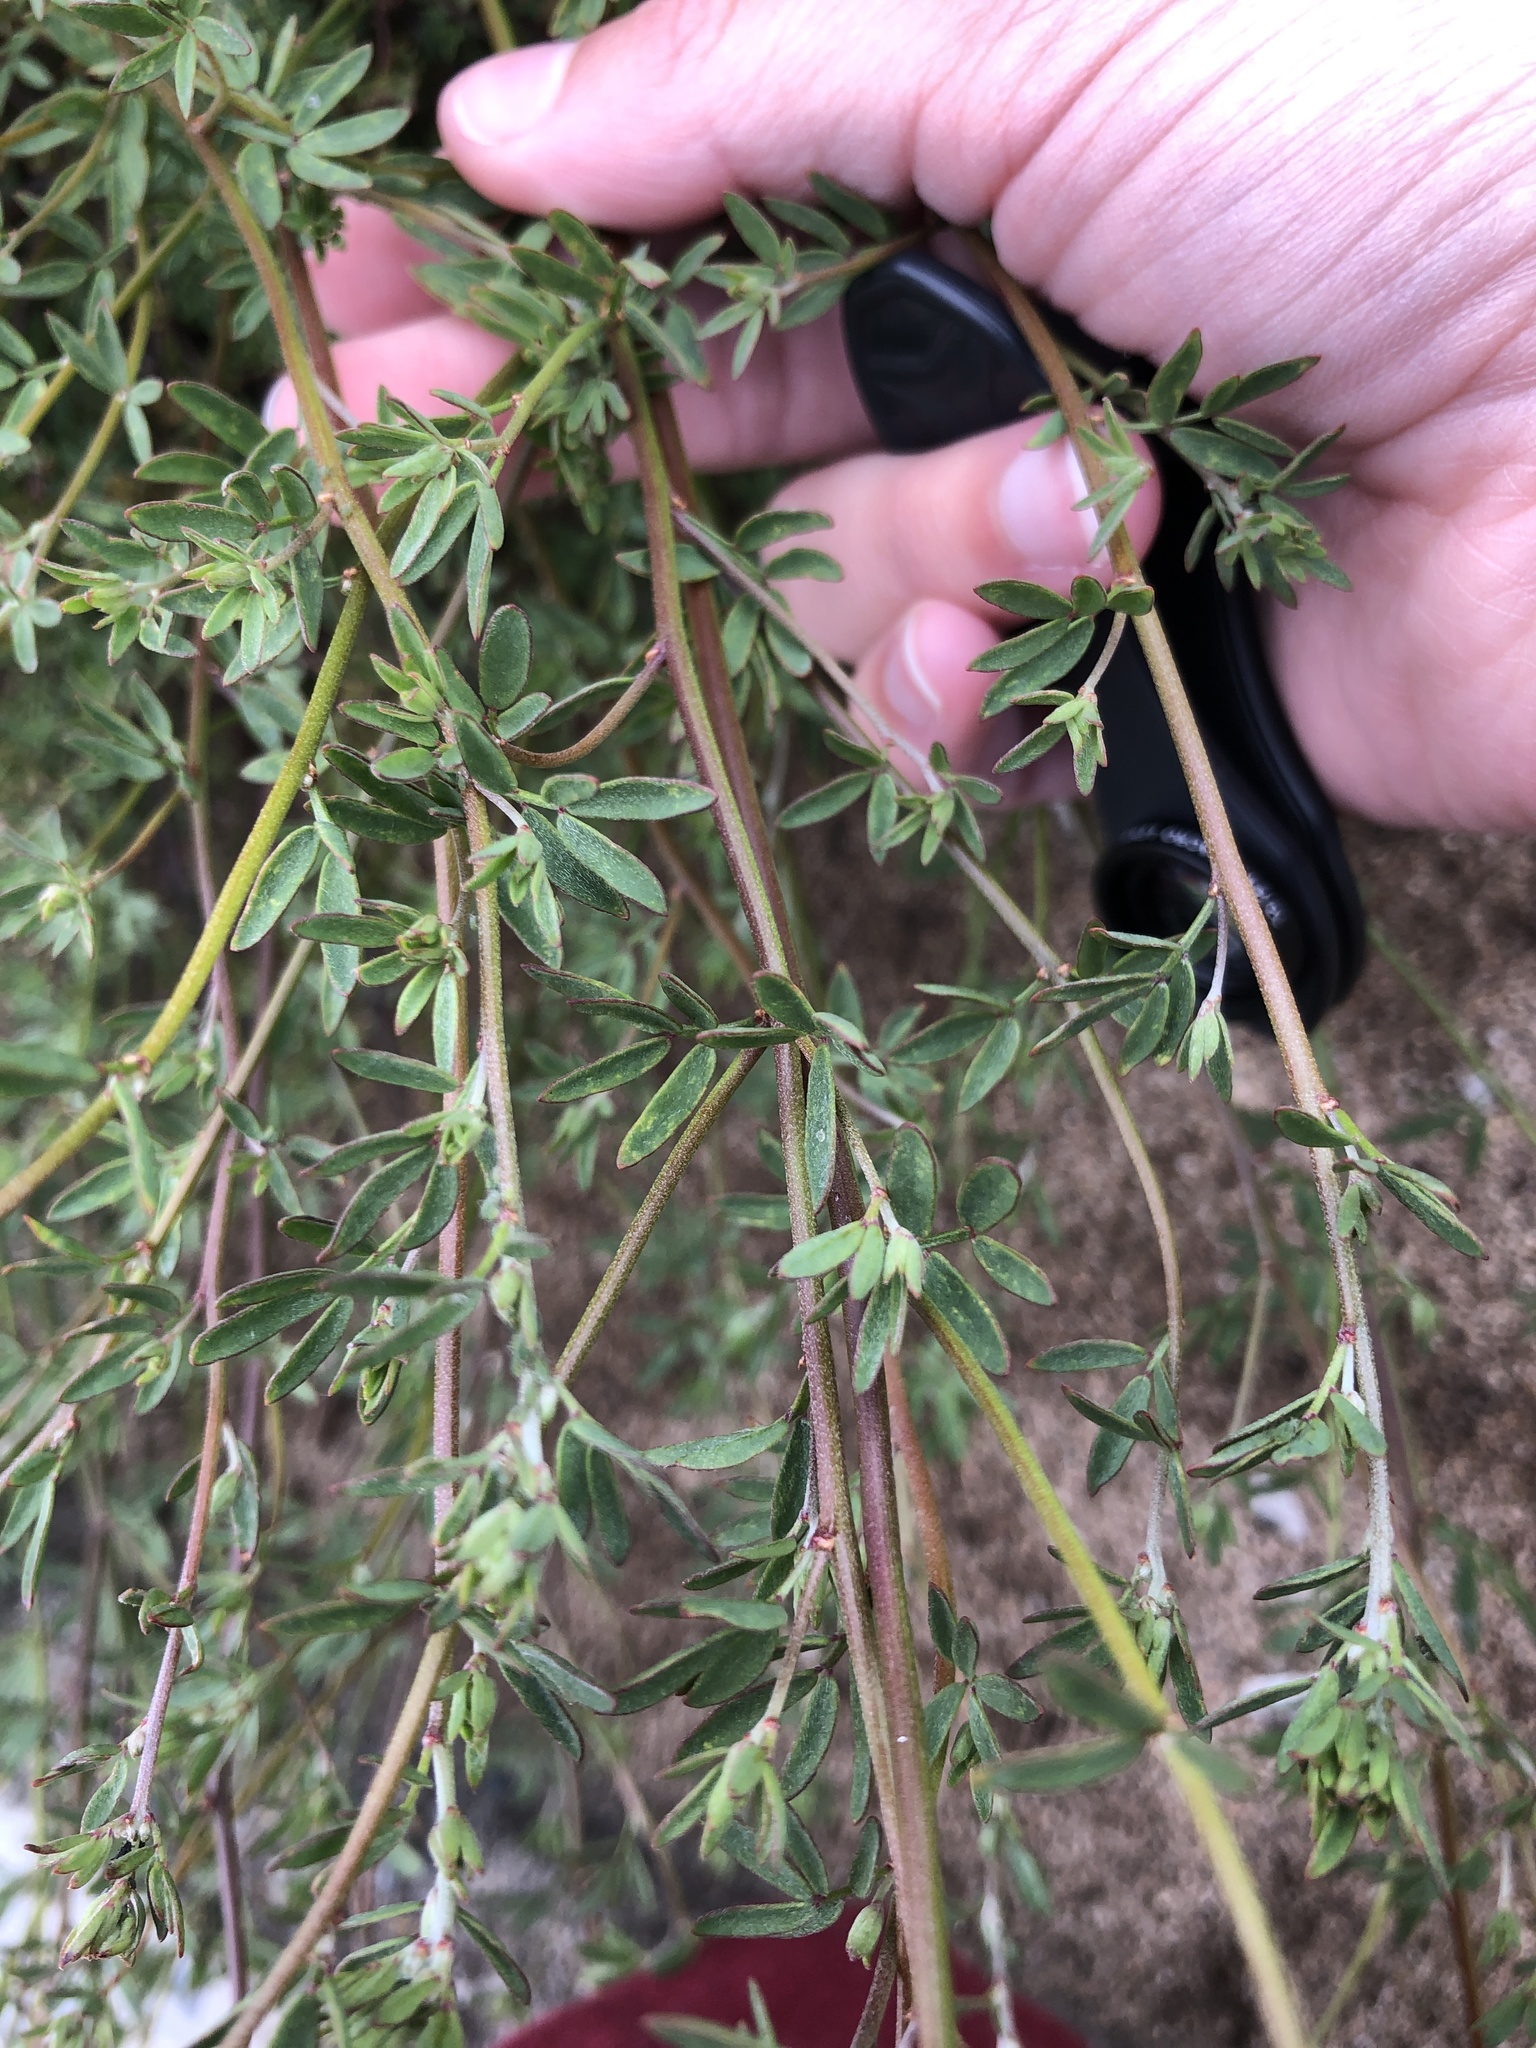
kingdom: Plantae
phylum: Tracheophyta
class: Magnoliopsida
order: Fabales
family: Fabaceae
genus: Acmispon
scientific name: Acmispon glaber
